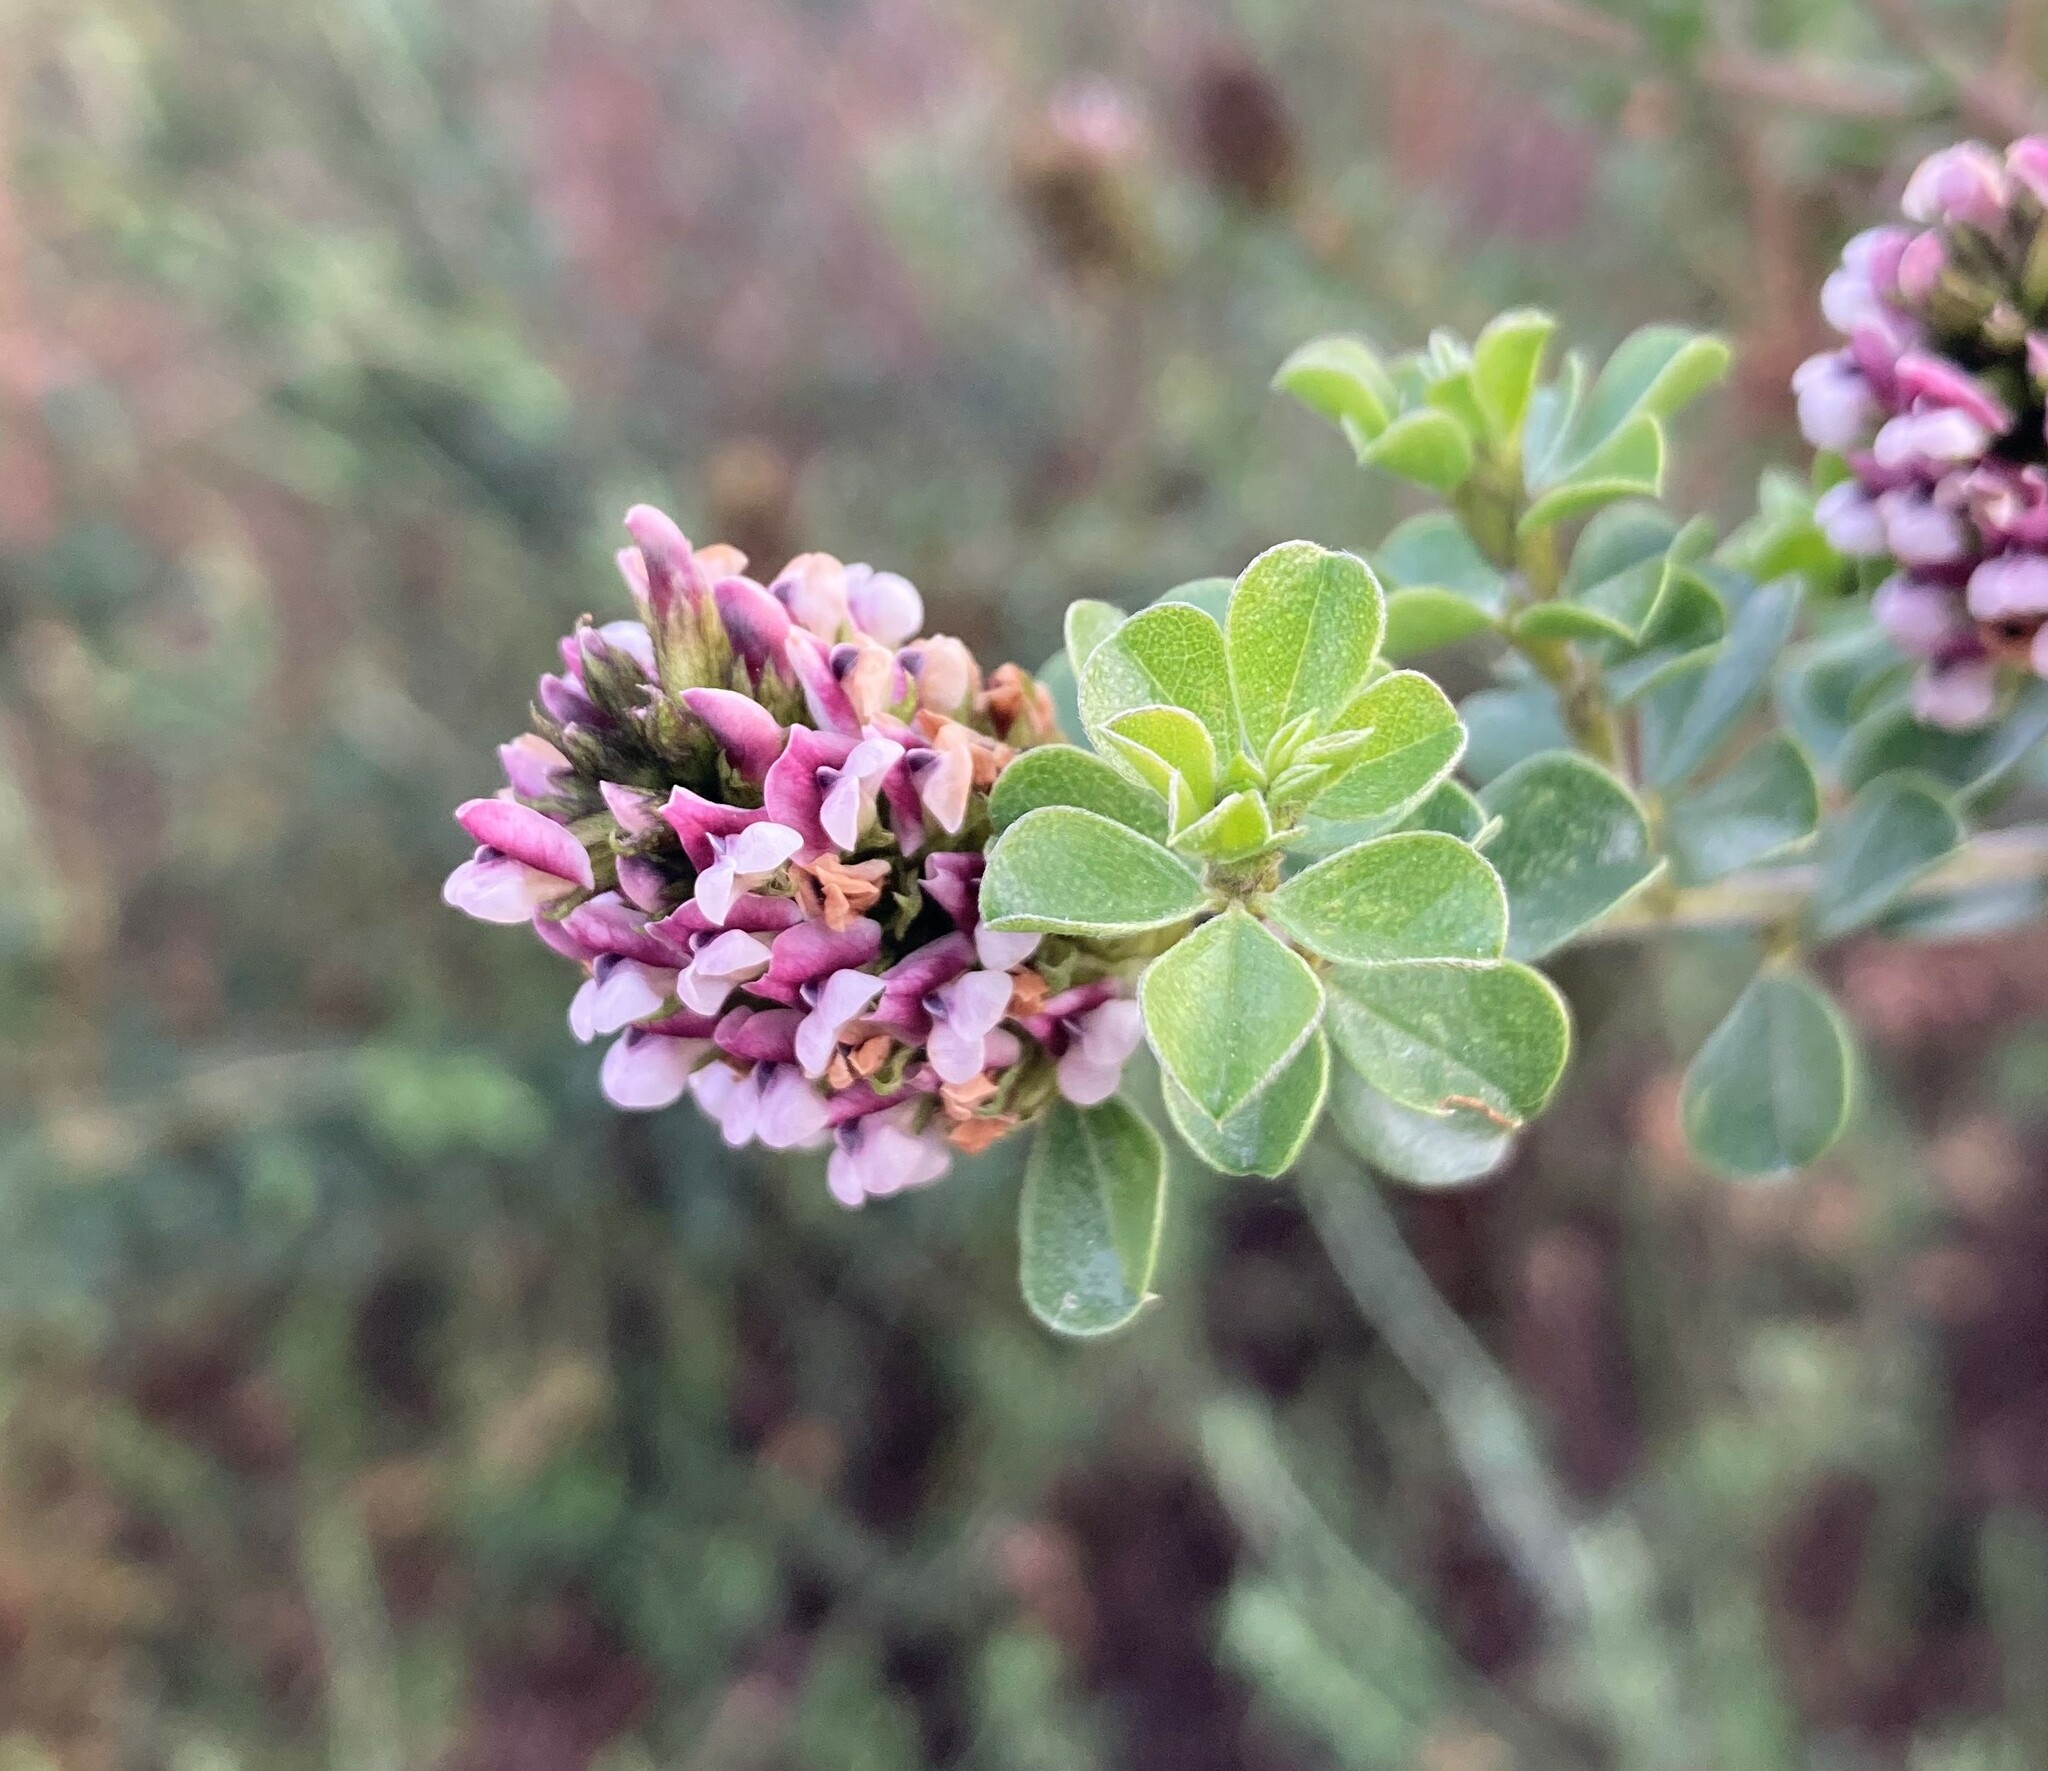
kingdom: Plantae
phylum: Tracheophyta
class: Magnoliopsida
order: Fabales
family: Fabaceae
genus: Psoralea
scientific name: Psoralea stachyera
